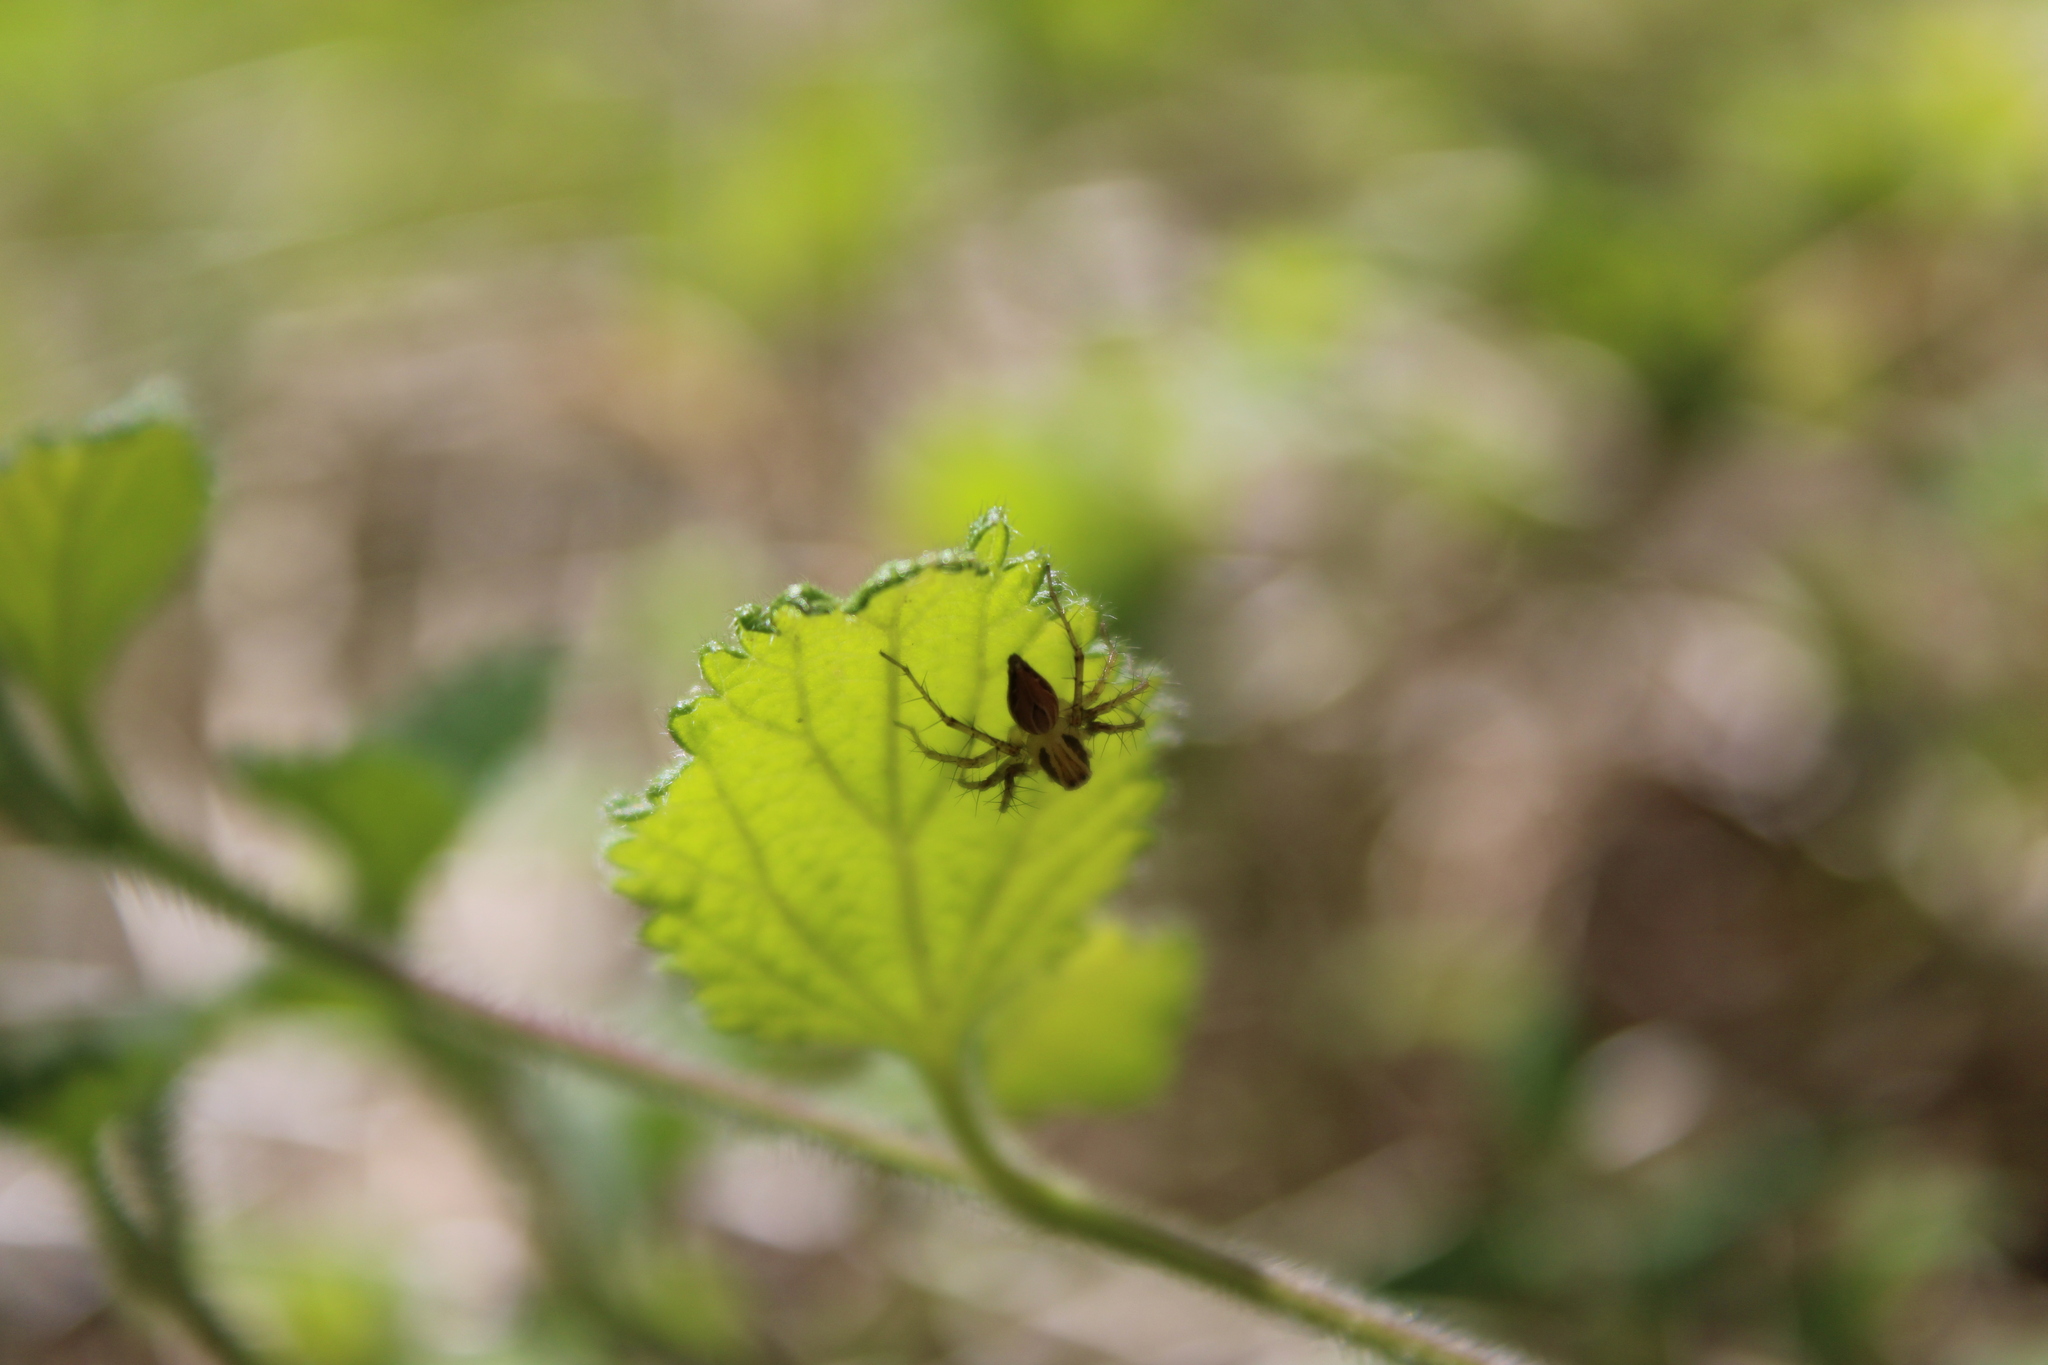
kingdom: Animalia
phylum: Arthropoda
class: Arachnida
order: Araneae
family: Oxyopidae
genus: Oxyopes
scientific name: Oxyopes salticus
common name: Lynx spiders
